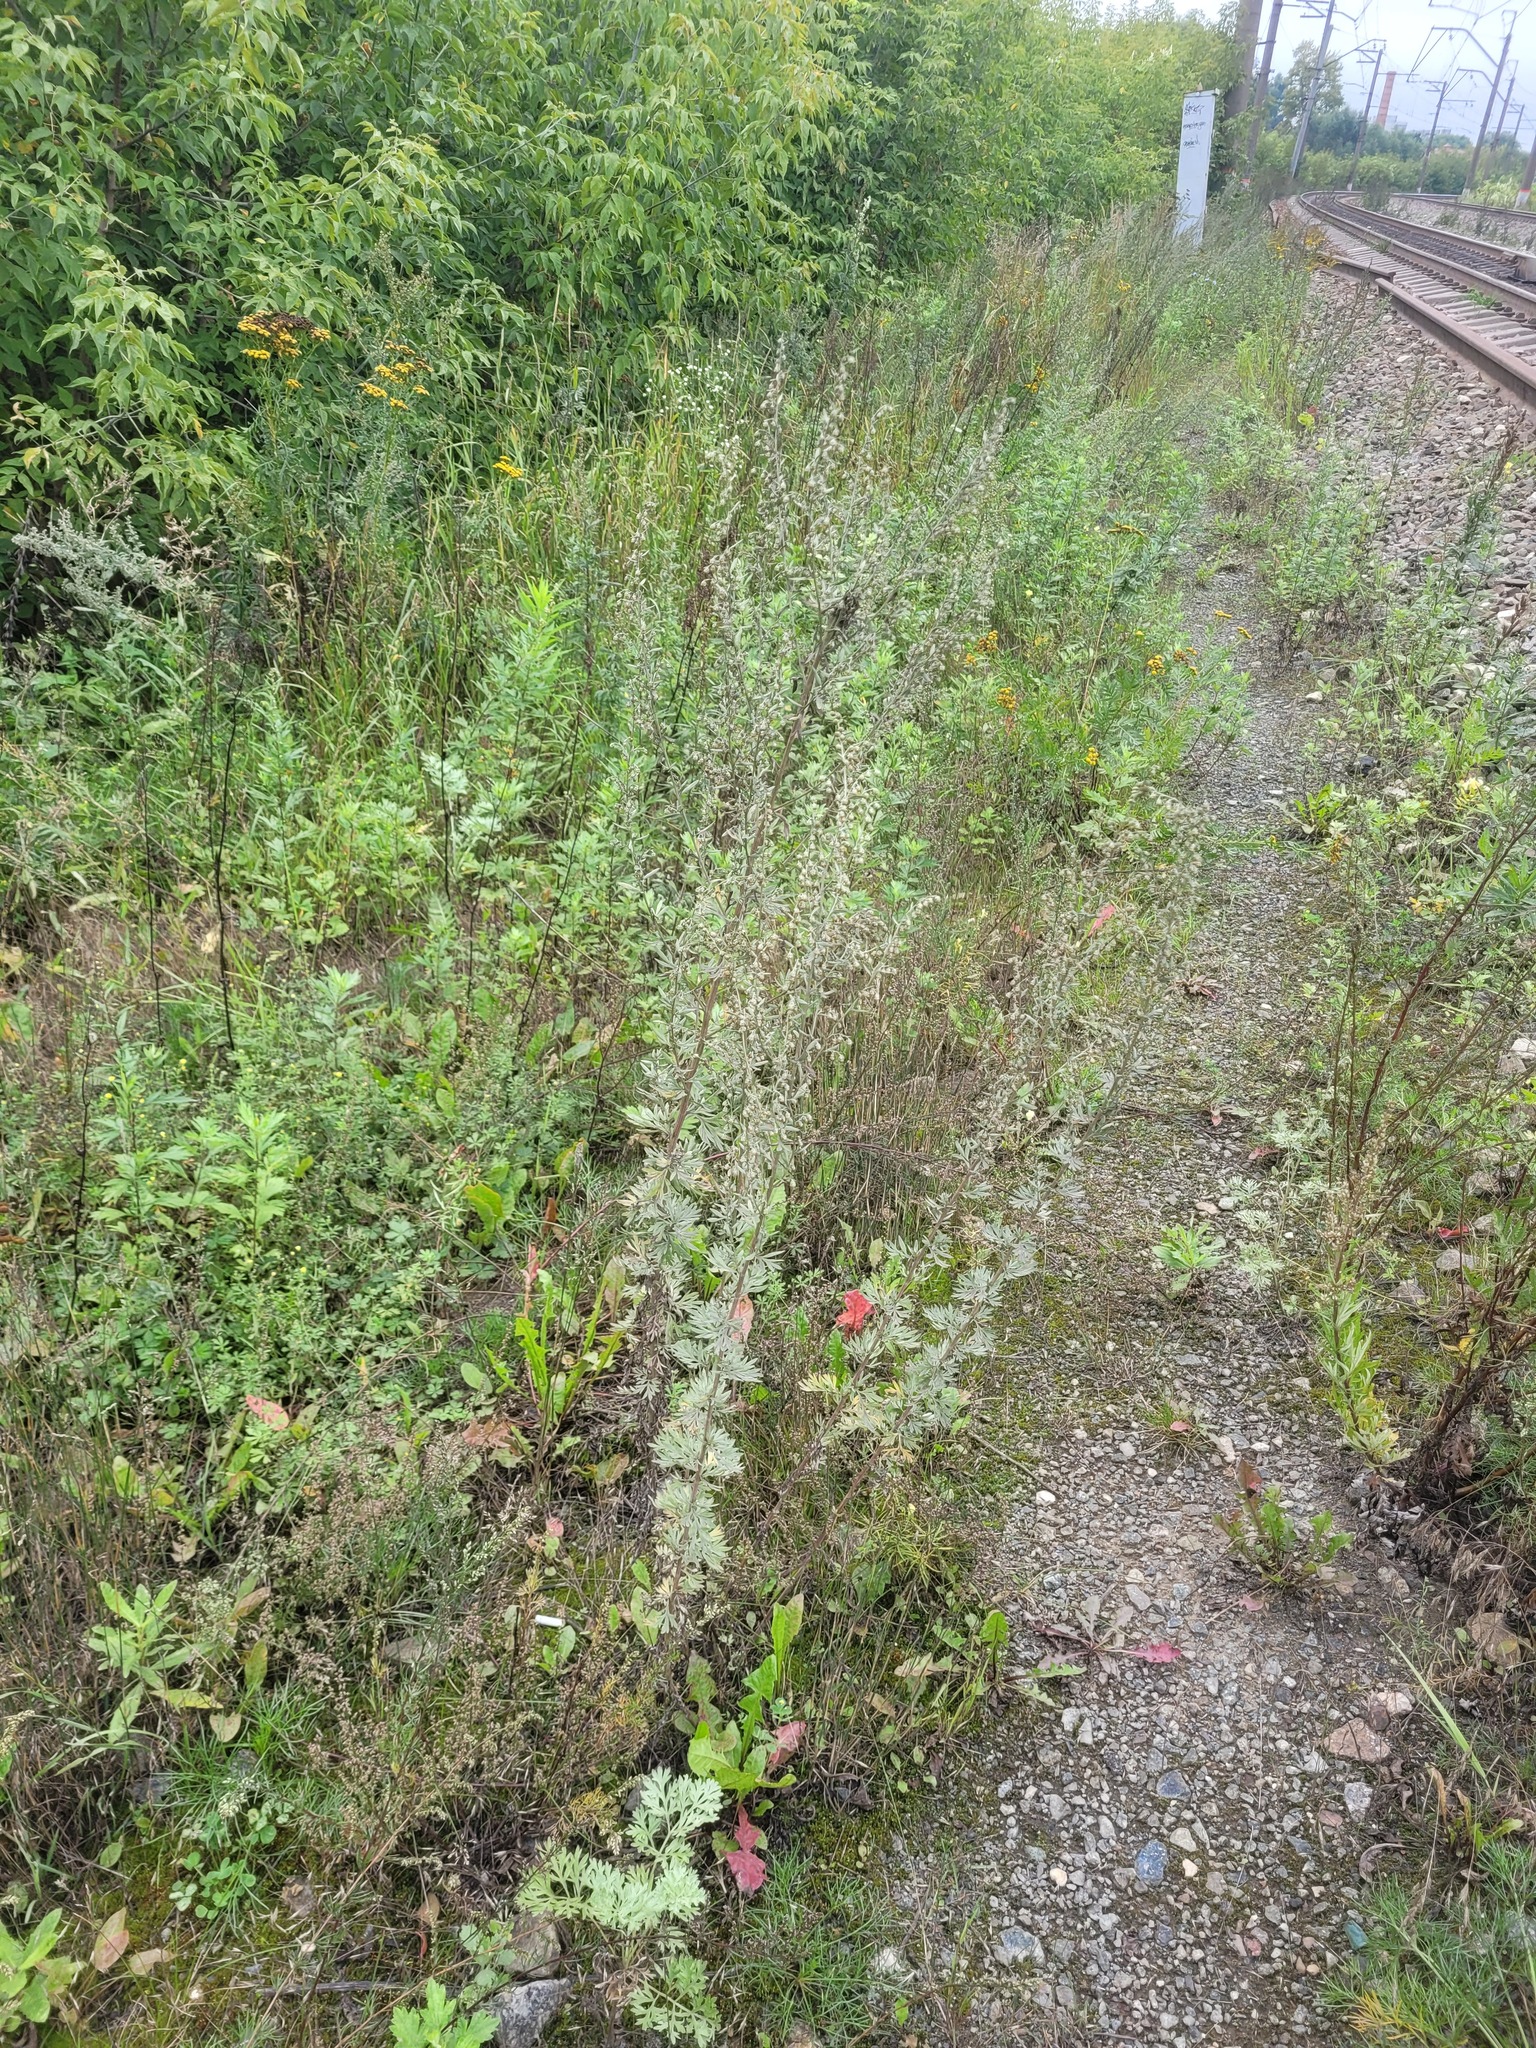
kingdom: Plantae
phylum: Tracheophyta
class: Magnoliopsida
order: Asterales
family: Asteraceae
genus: Artemisia
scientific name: Artemisia absinthium
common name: Wormwood
